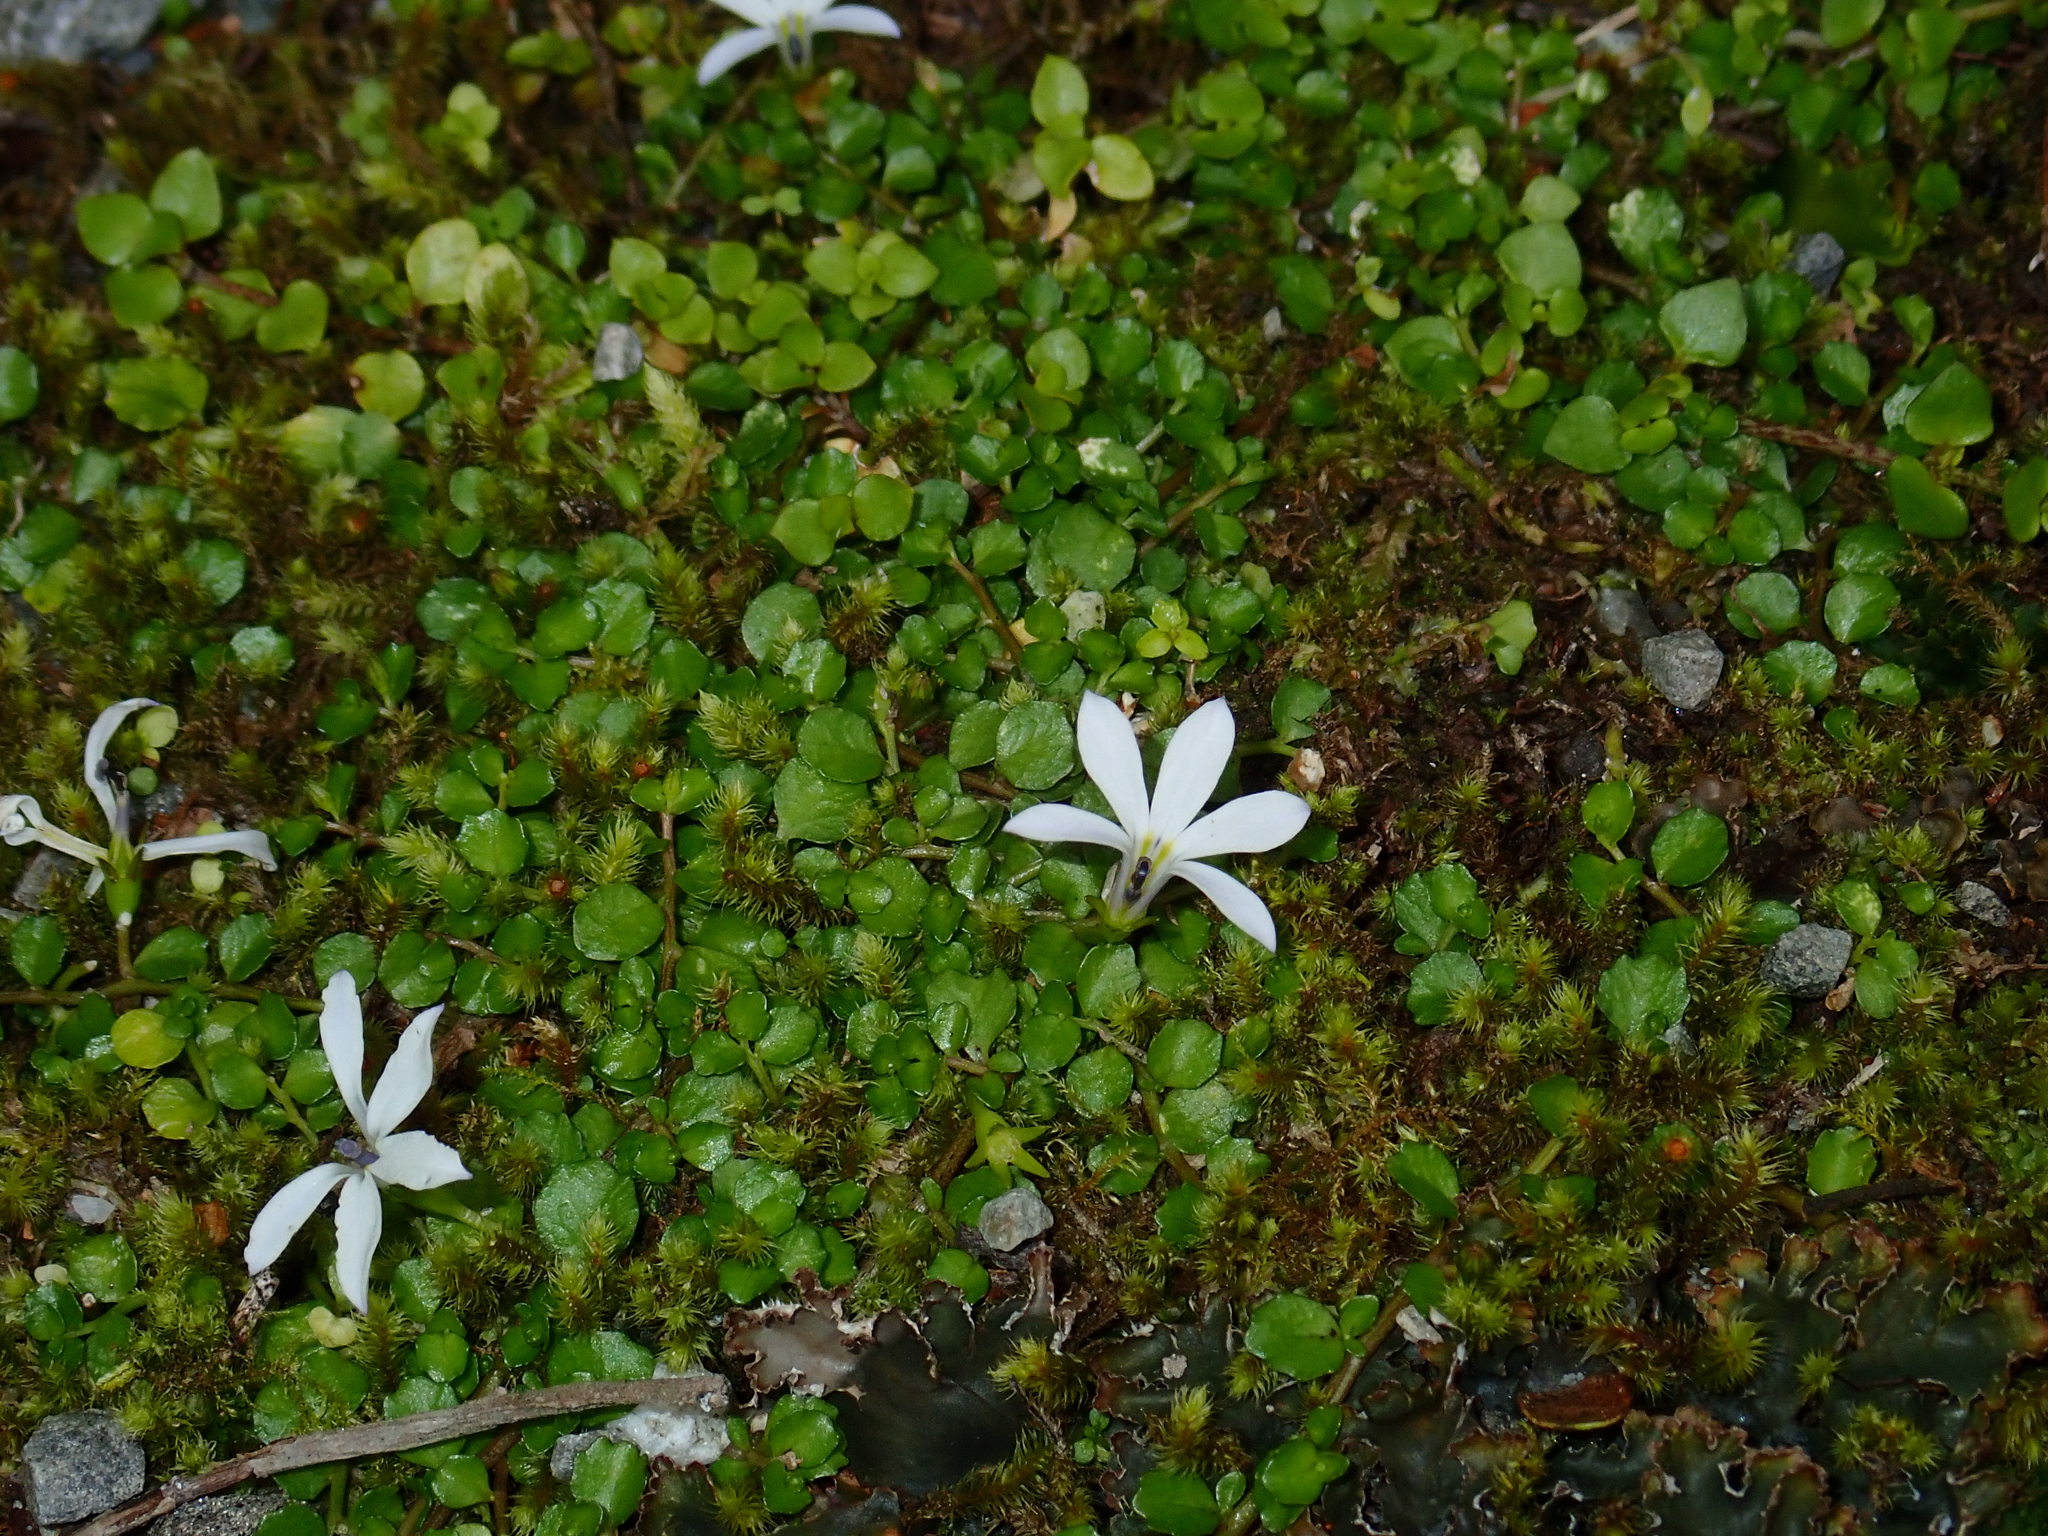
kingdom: Plantae
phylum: Tracheophyta
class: Magnoliopsida
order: Asterales
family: Campanulaceae
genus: Lobelia
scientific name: Lobelia angulata
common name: Lawn lobelia
